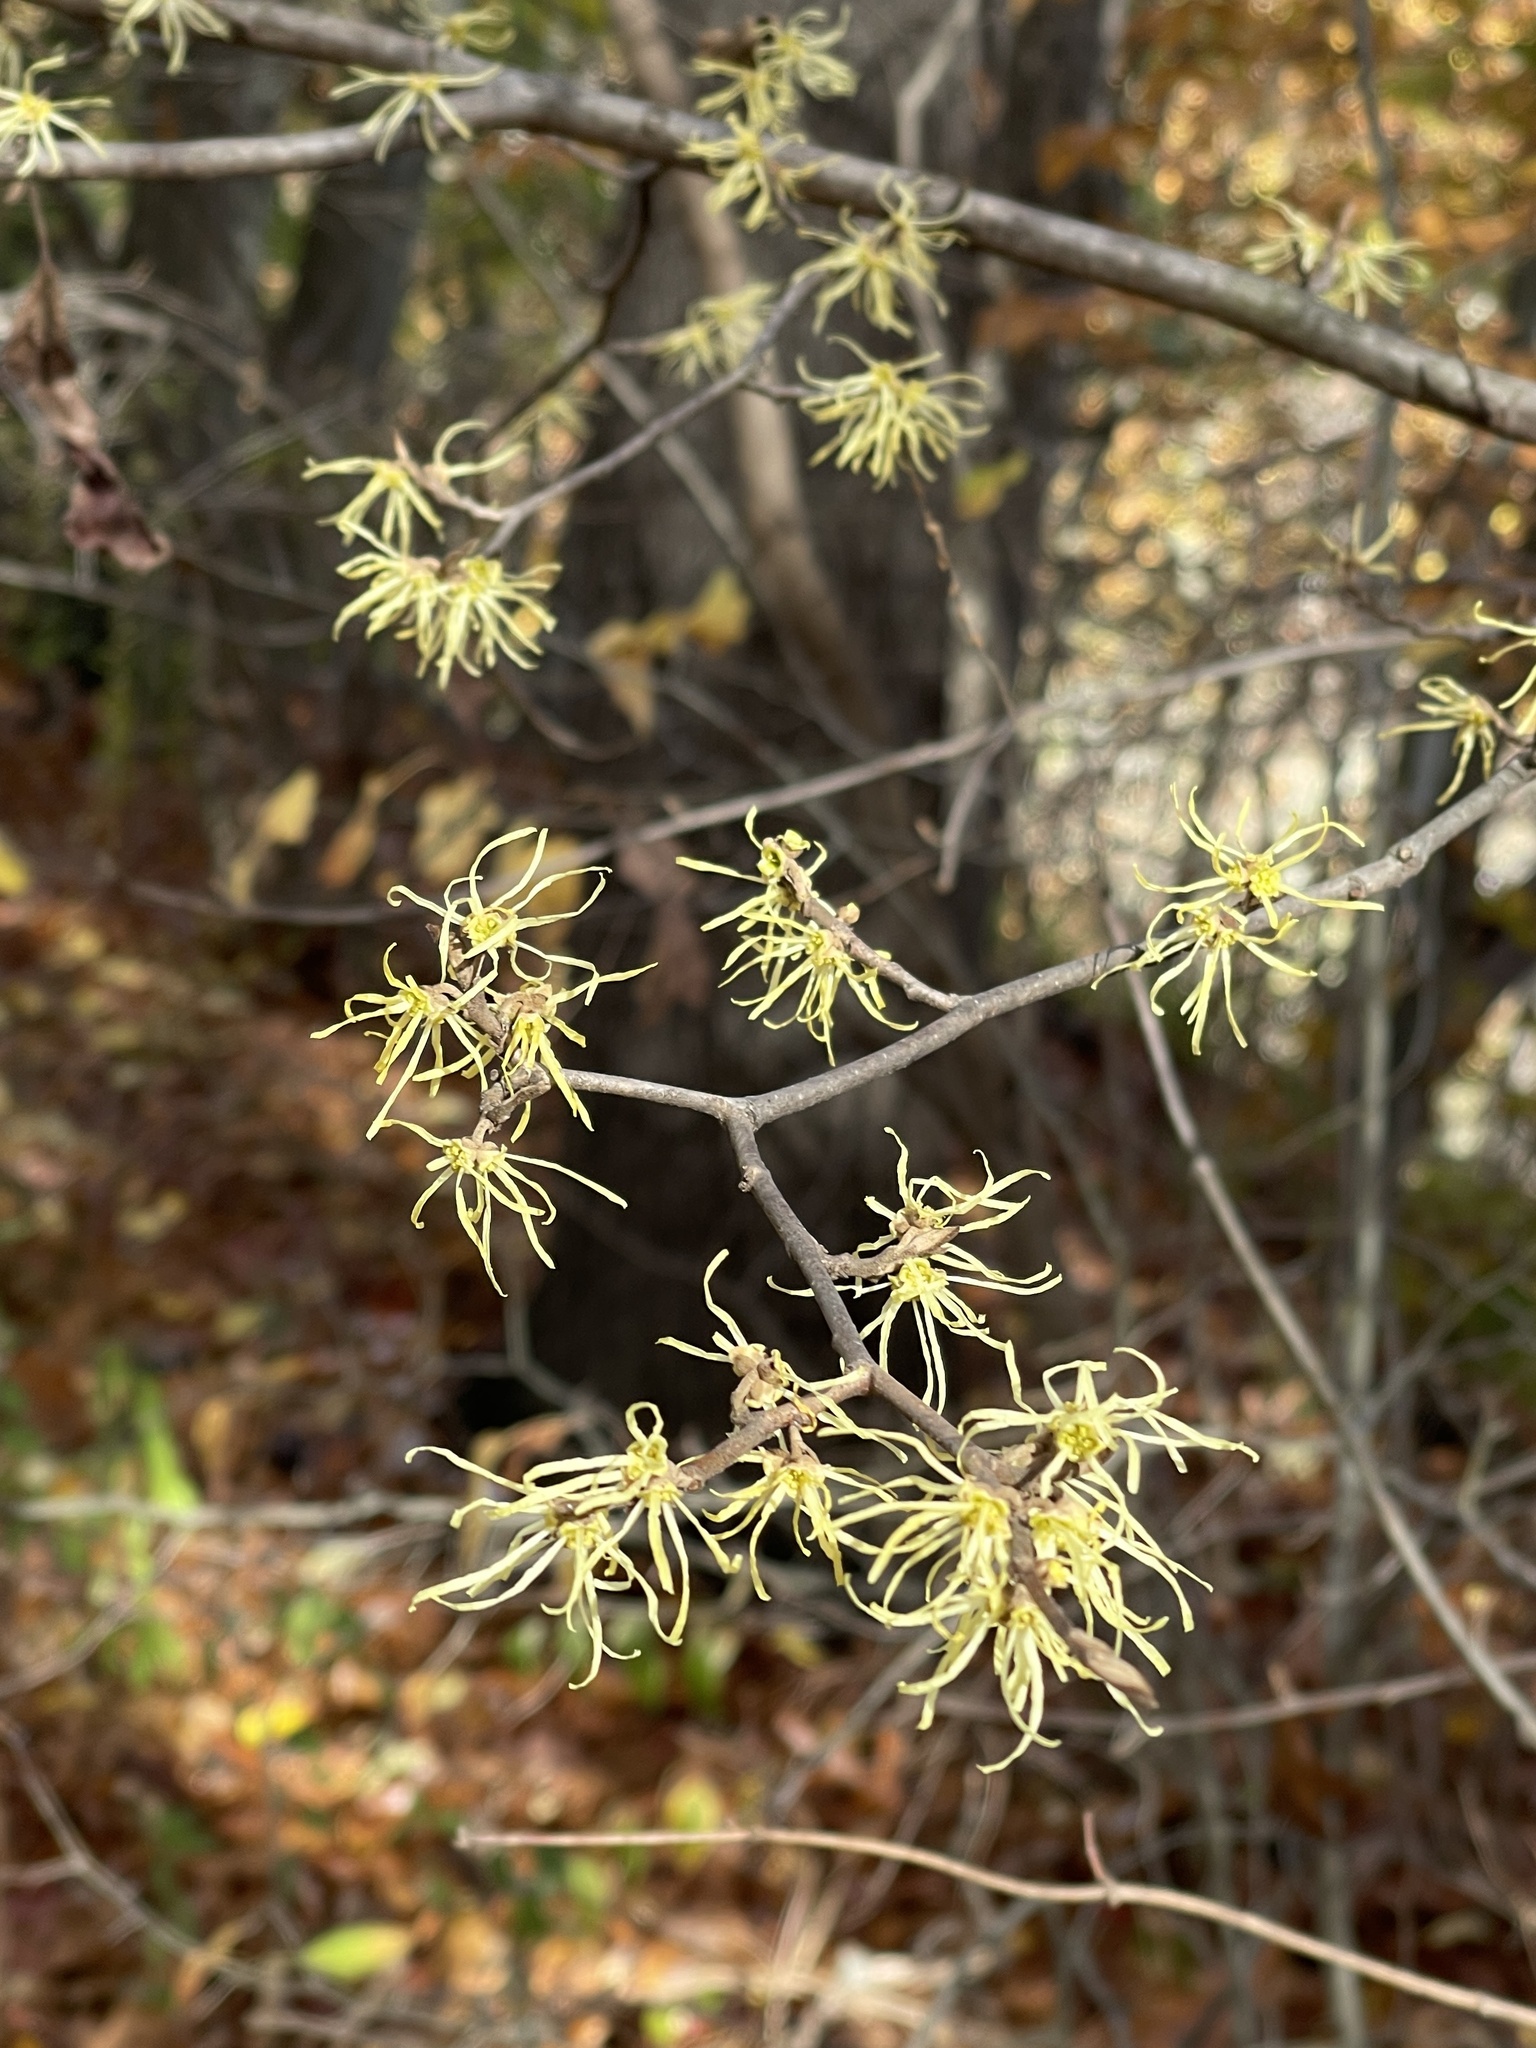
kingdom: Plantae
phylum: Tracheophyta
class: Magnoliopsida
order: Saxifragales
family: Hamamelidaceae
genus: Hamamelis
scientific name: Hamamelis virginiana
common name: Witch-hazel
